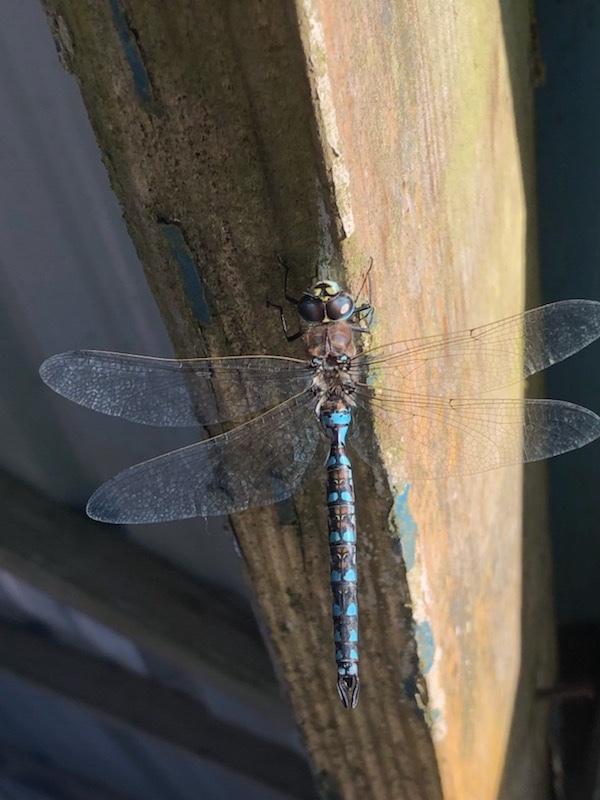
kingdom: Animalia
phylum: Arthropoda
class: Insecta
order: Odonata
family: Aeshnidae
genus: Rhionaeschna
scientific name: Rhionaeschna californica
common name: California darner
